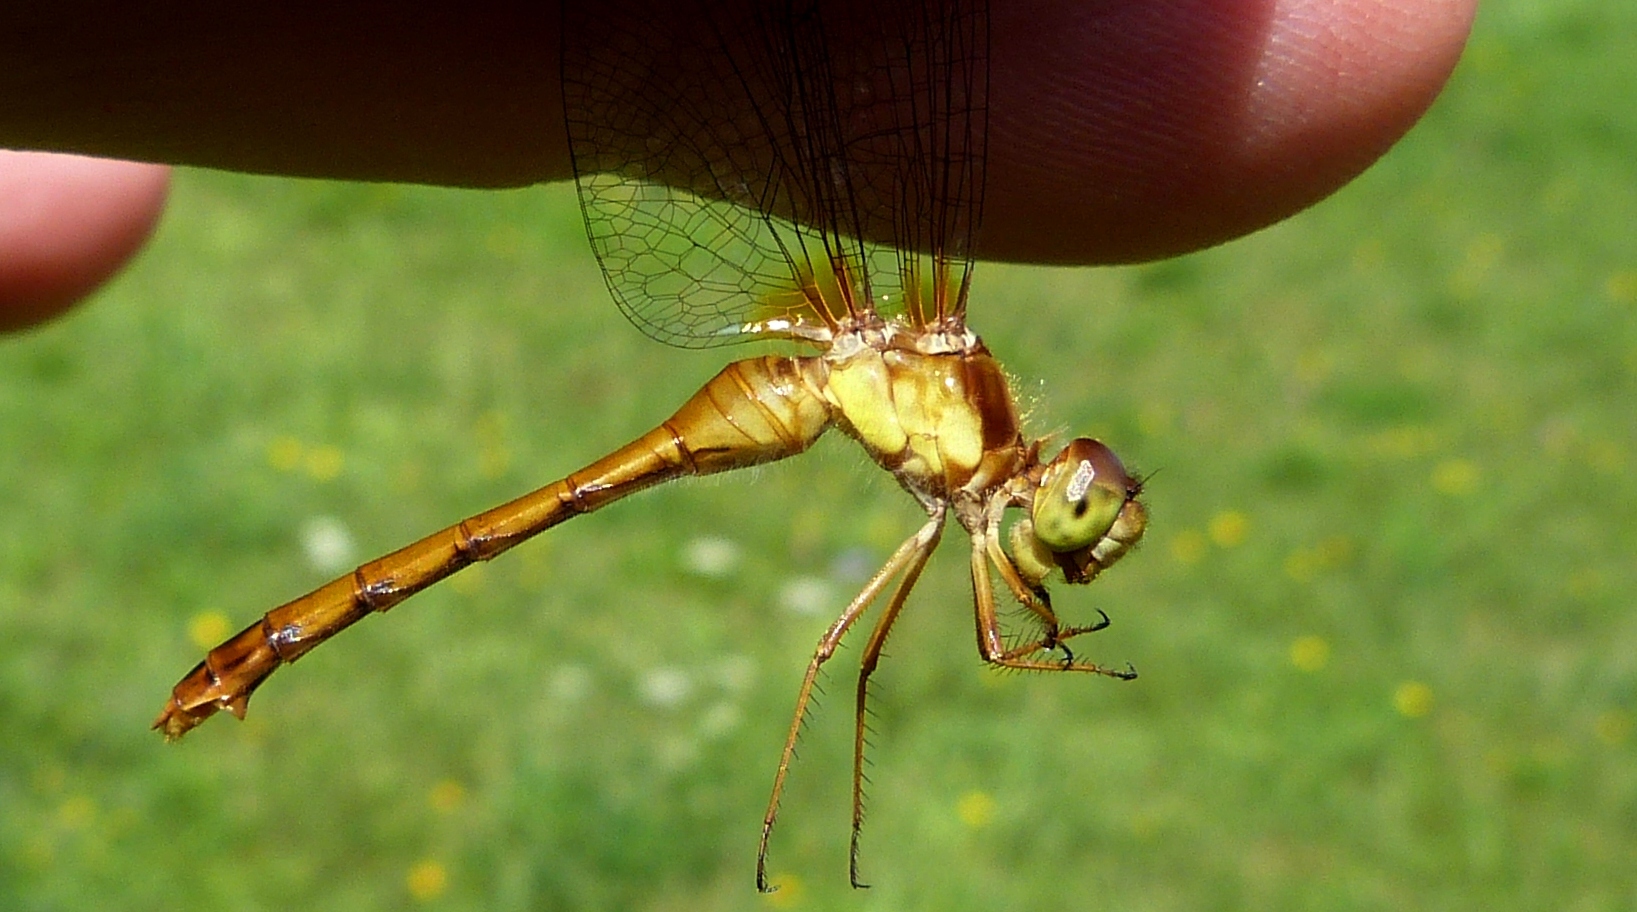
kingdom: Animalia
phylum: Arthropoda
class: Insecta
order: Odonata
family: Libellulidae
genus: Sympetrum
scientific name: Sympetrum vicinum
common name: Autumn meadowhawk
